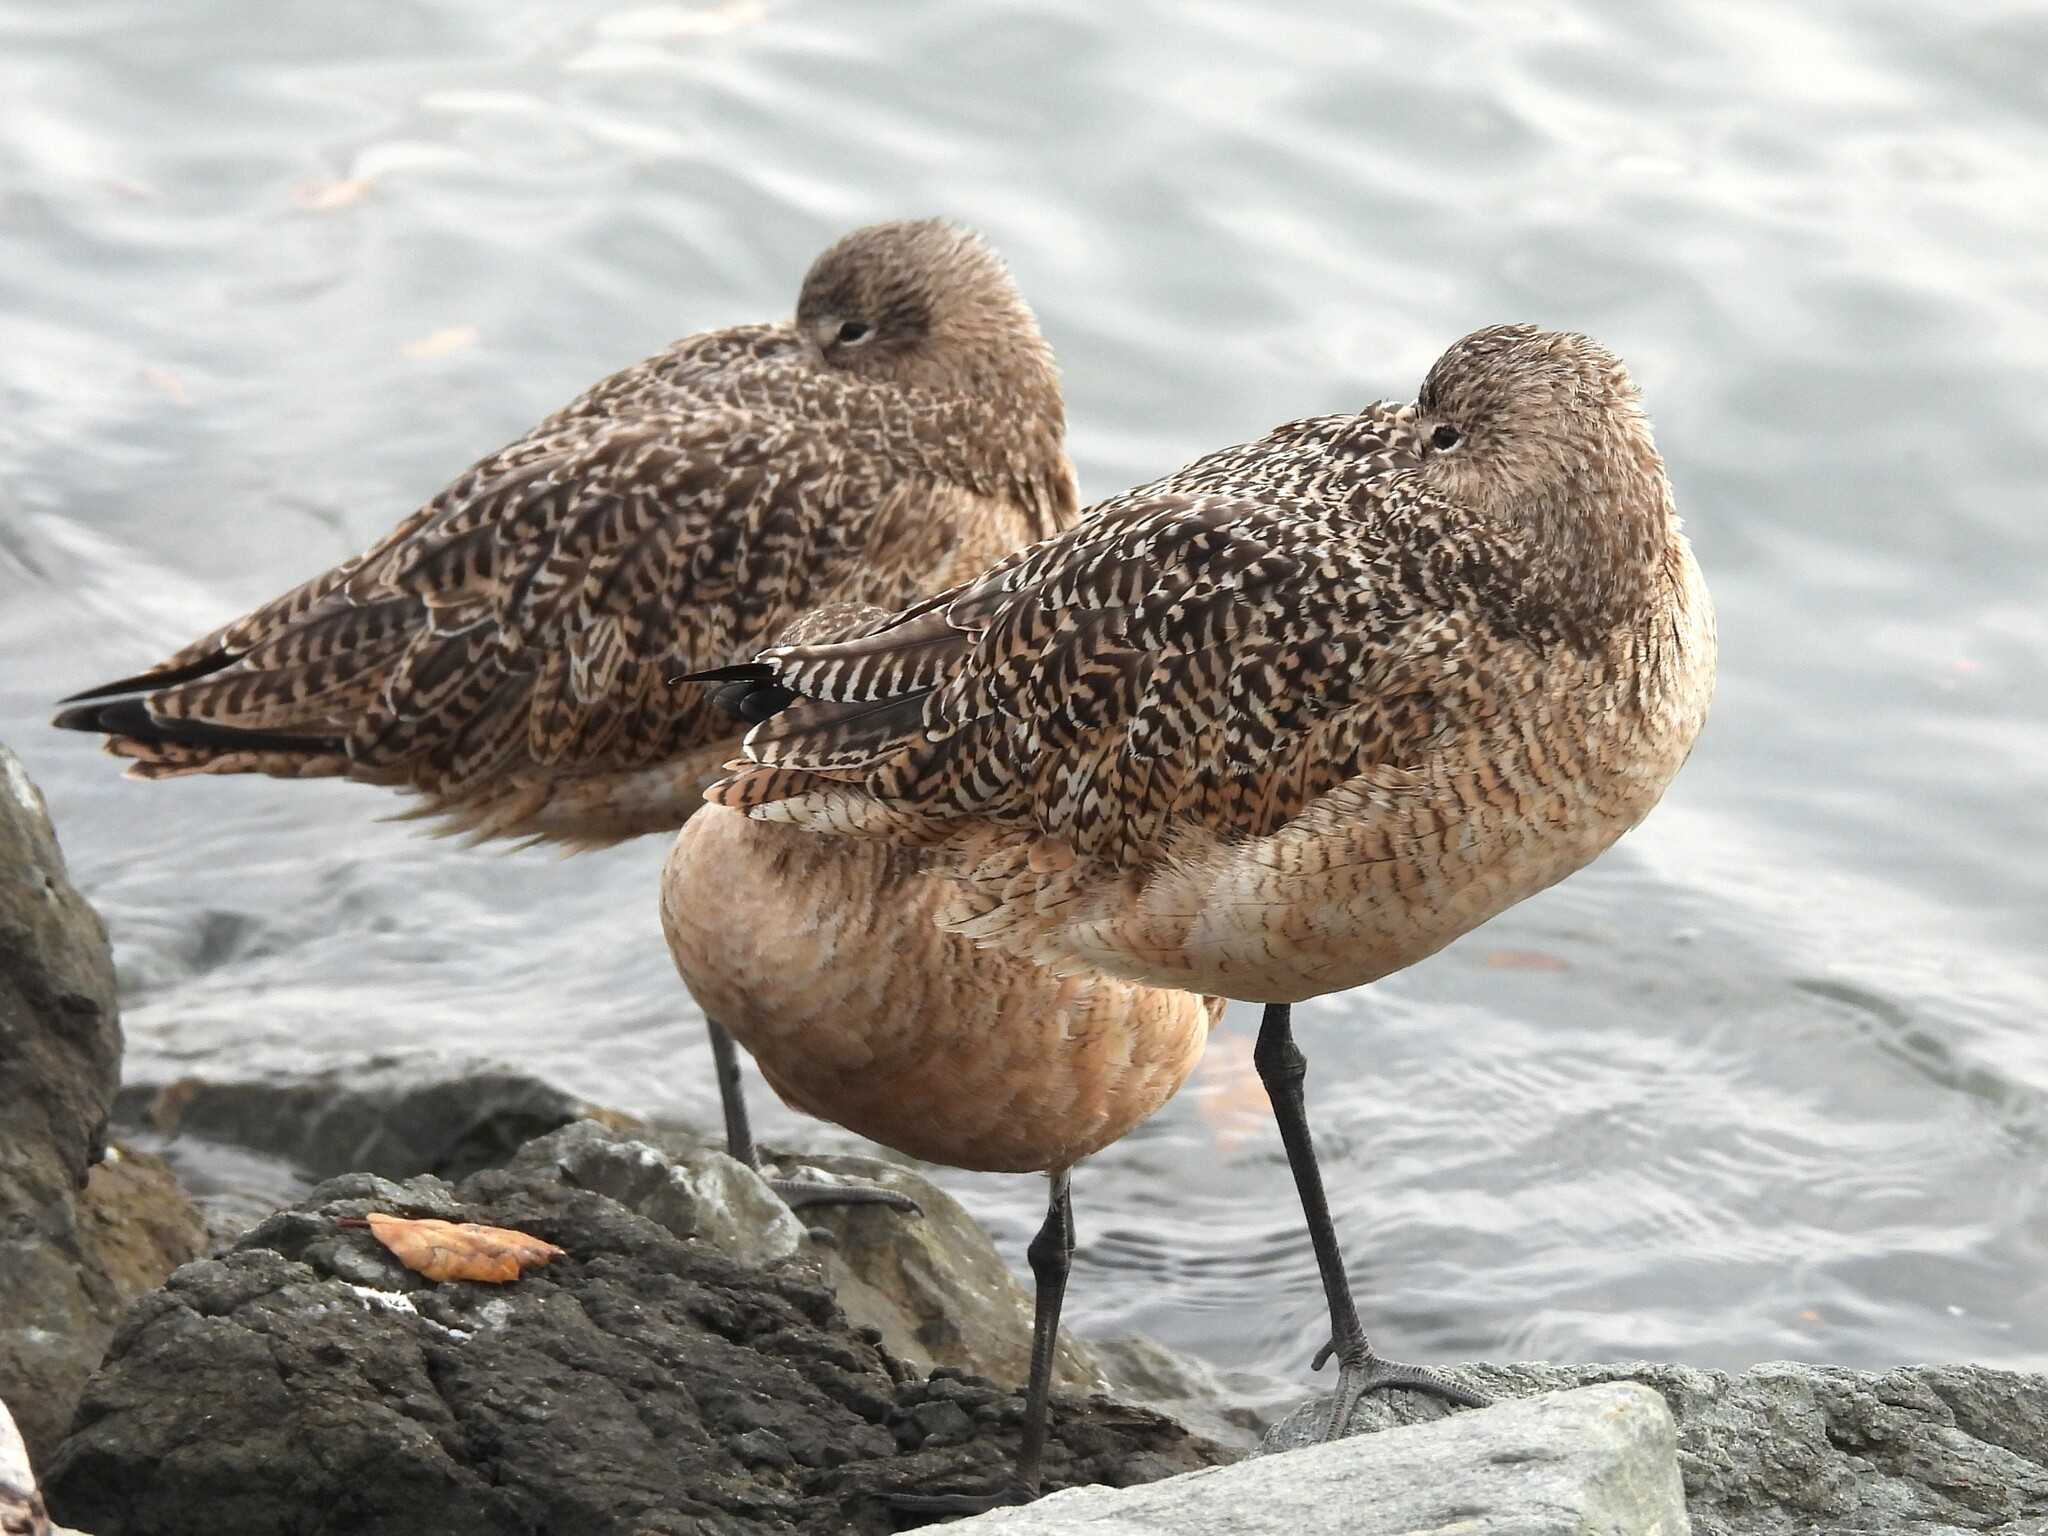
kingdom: Animalia
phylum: Chordata
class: Aves
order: Charadriiformes
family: Scolopacidae
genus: Limosa
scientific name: Limosa fedoa
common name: Marbled godwit
